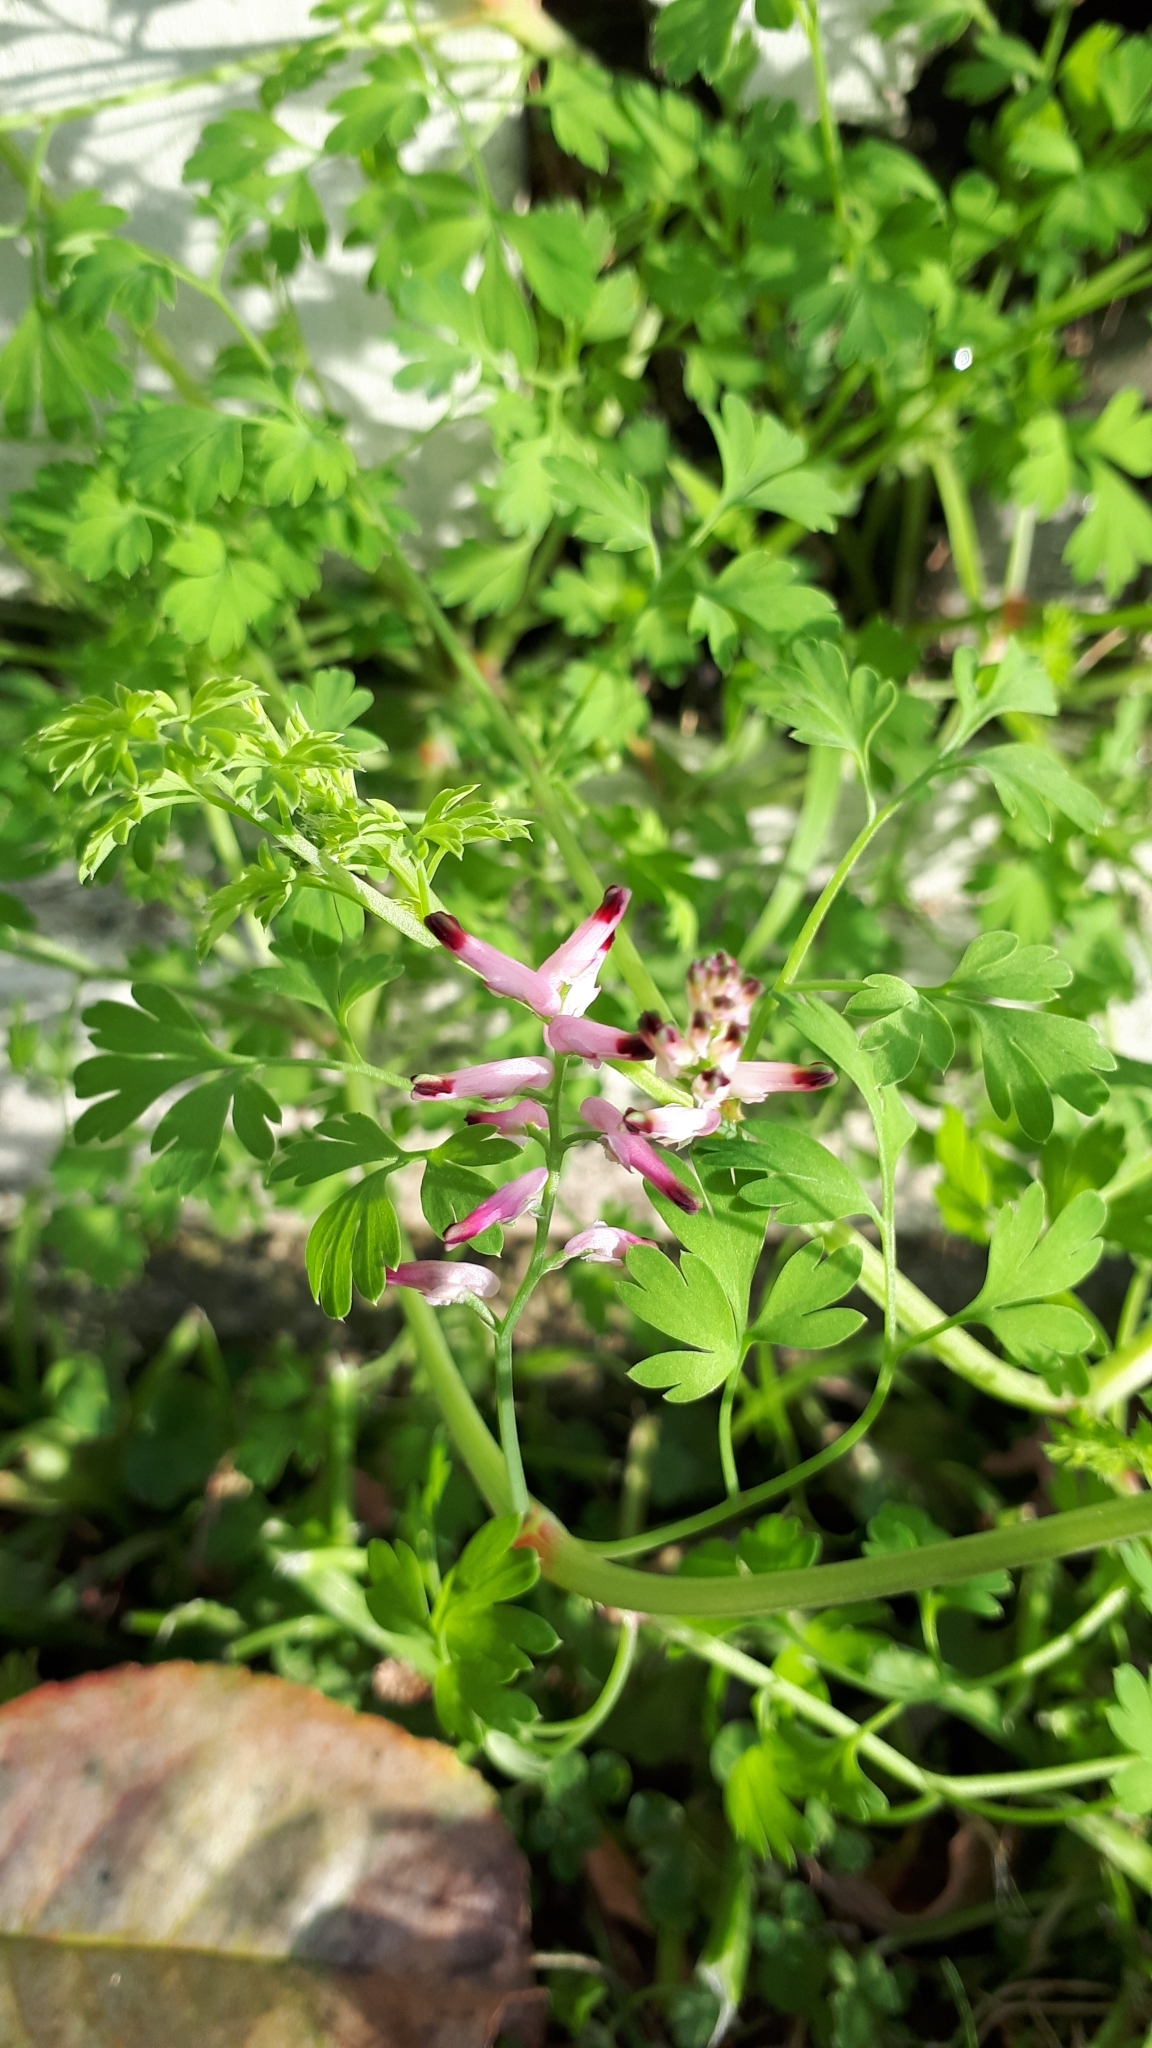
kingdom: Plantae
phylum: Tracheophyta
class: Magnoliopsida
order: Ranunculales
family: Papaveraceae
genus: Fumaria
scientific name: Fumaria muralis
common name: Common ramping-fumitory
